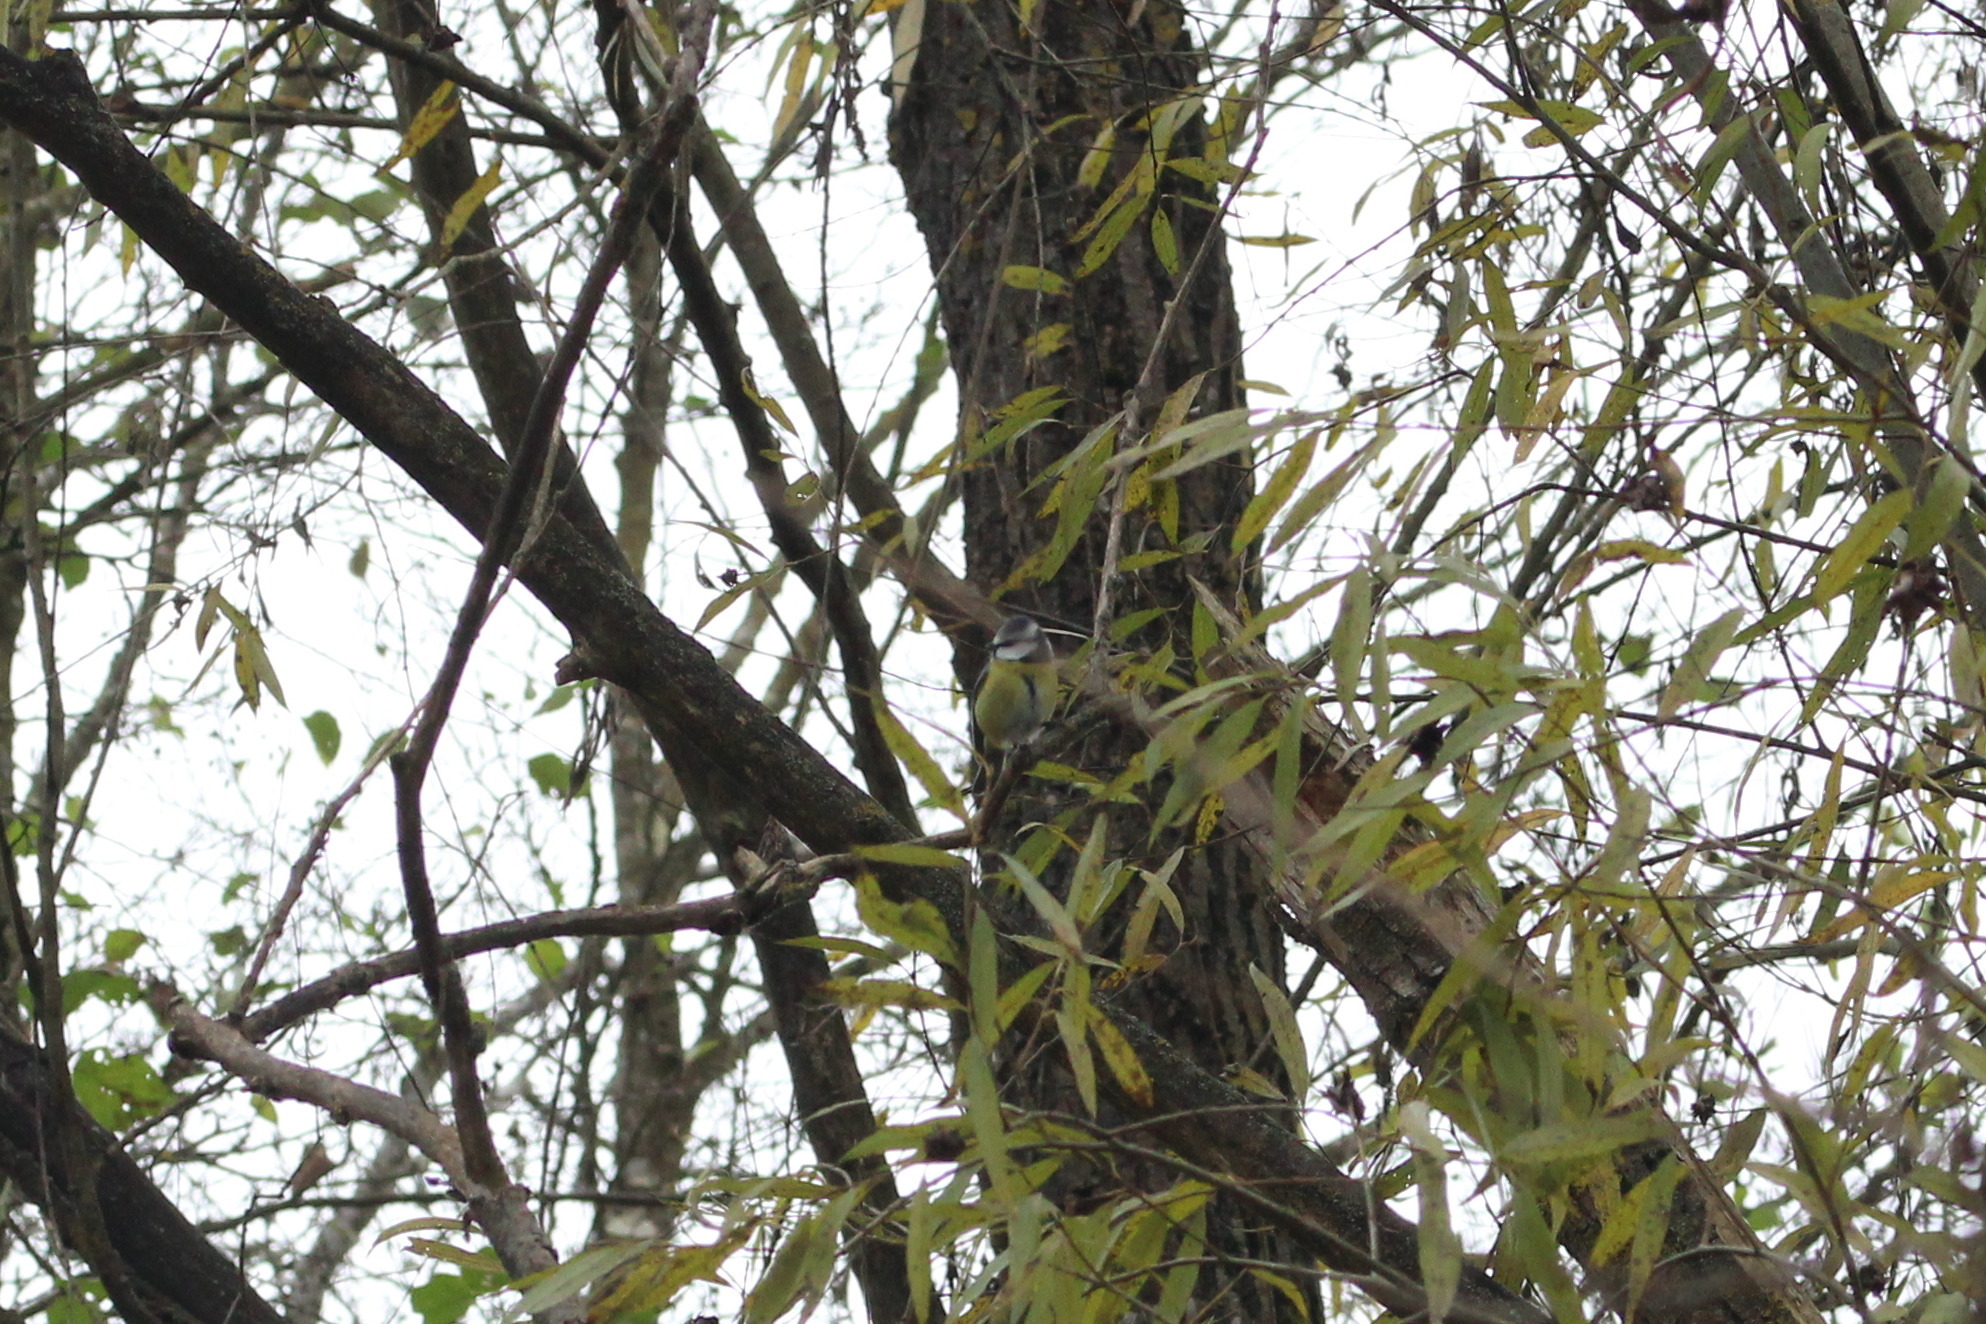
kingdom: Animalia
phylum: Chordata
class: Aves
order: Passeriformes
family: Paridae
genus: Cyanistes
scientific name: Cyanistes caeruleus
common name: Eurasian blue tit
